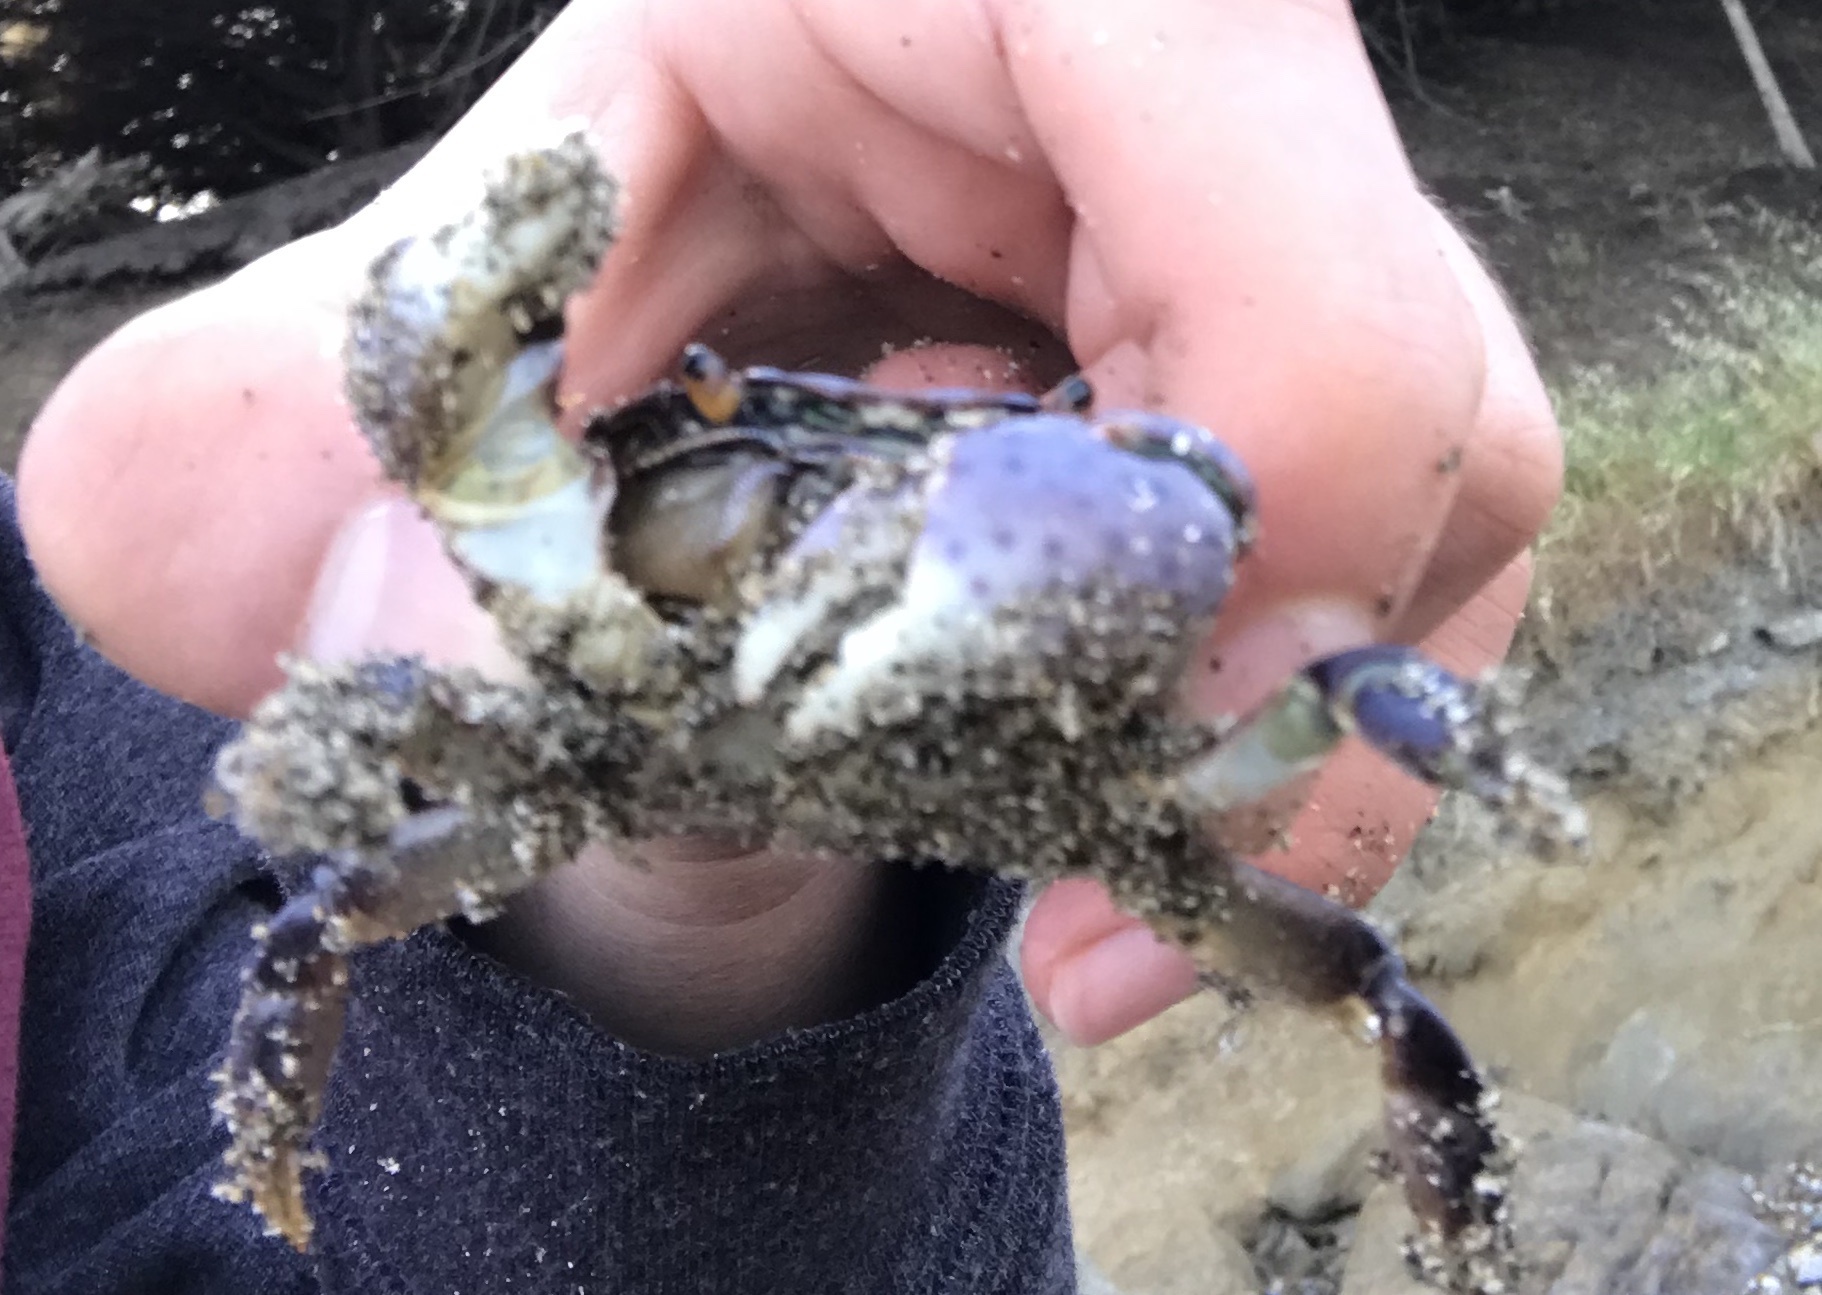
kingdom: Animalia
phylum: Arthropoda
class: Malacostraca
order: Decapoda
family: Varunidae
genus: Hemigrapsus
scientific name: Hemigrapsus nudus
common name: Purple shore crab
